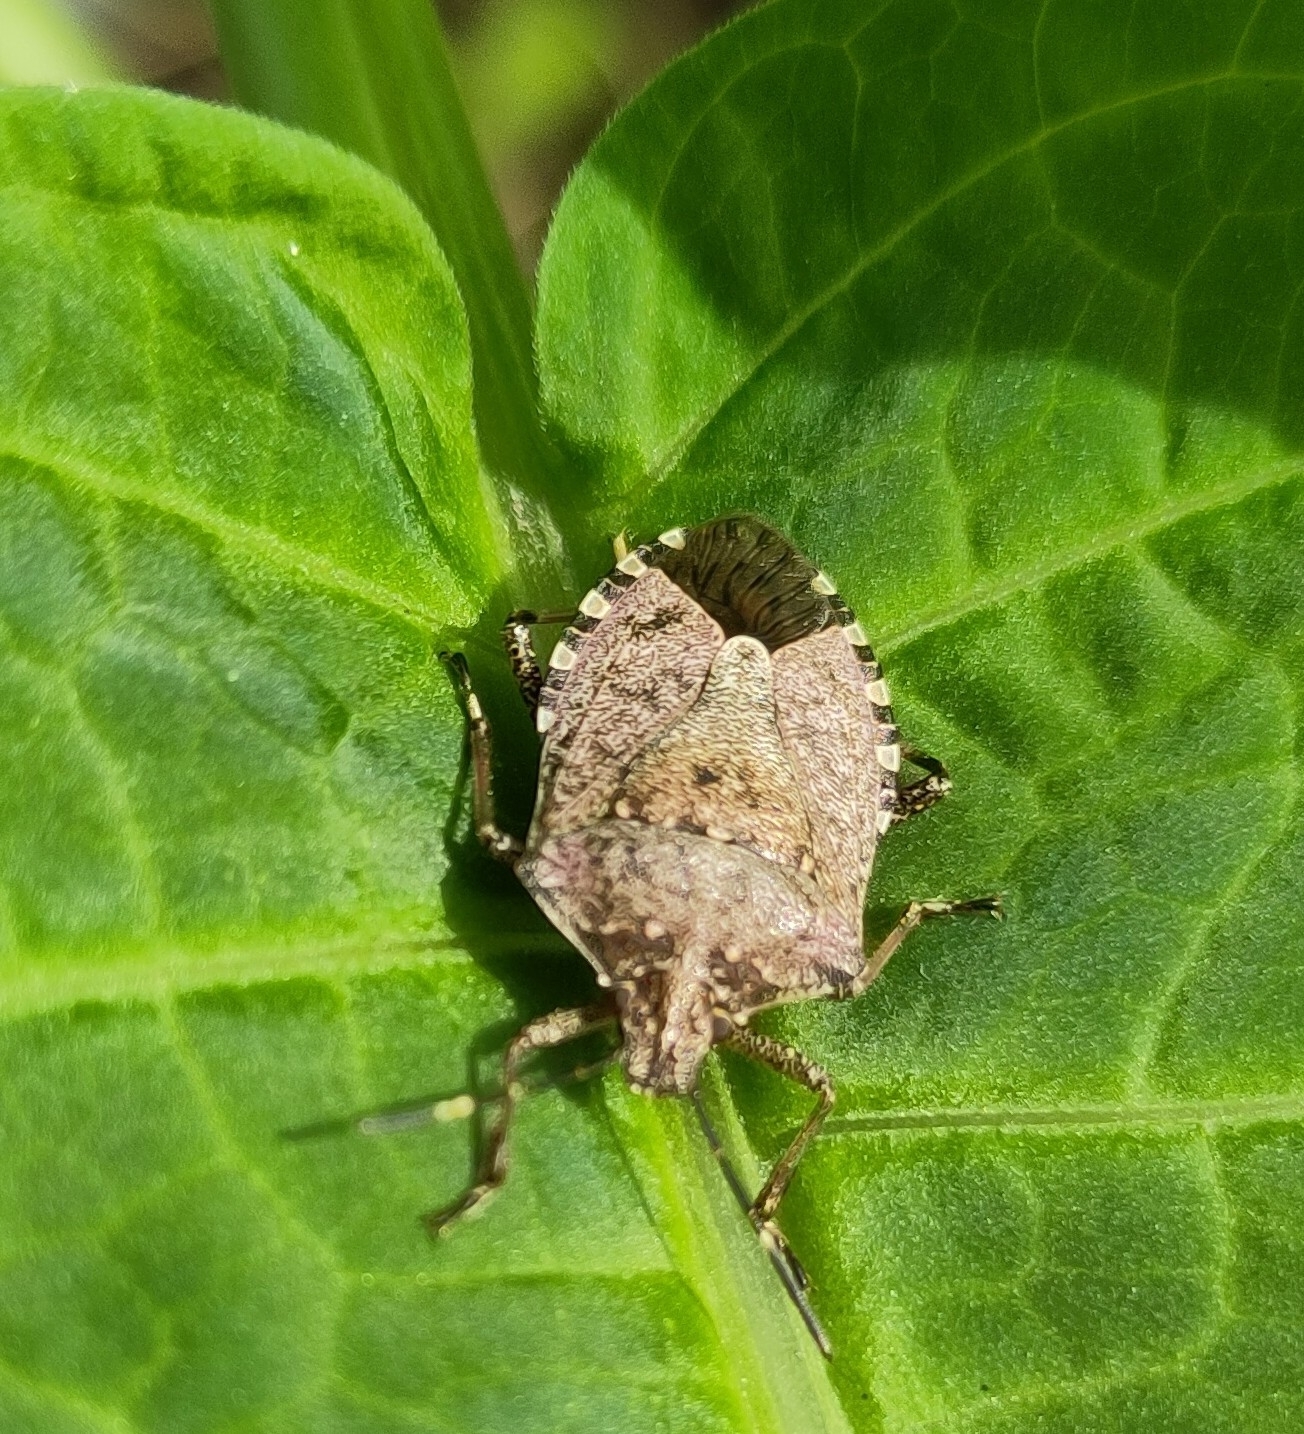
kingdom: Animalia
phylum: Arthropoda
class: Insecta
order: Hemiptera
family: Pentatomidae
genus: Halyomorpha
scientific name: Halyomorpha halys
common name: Brown marmorated stink bug
